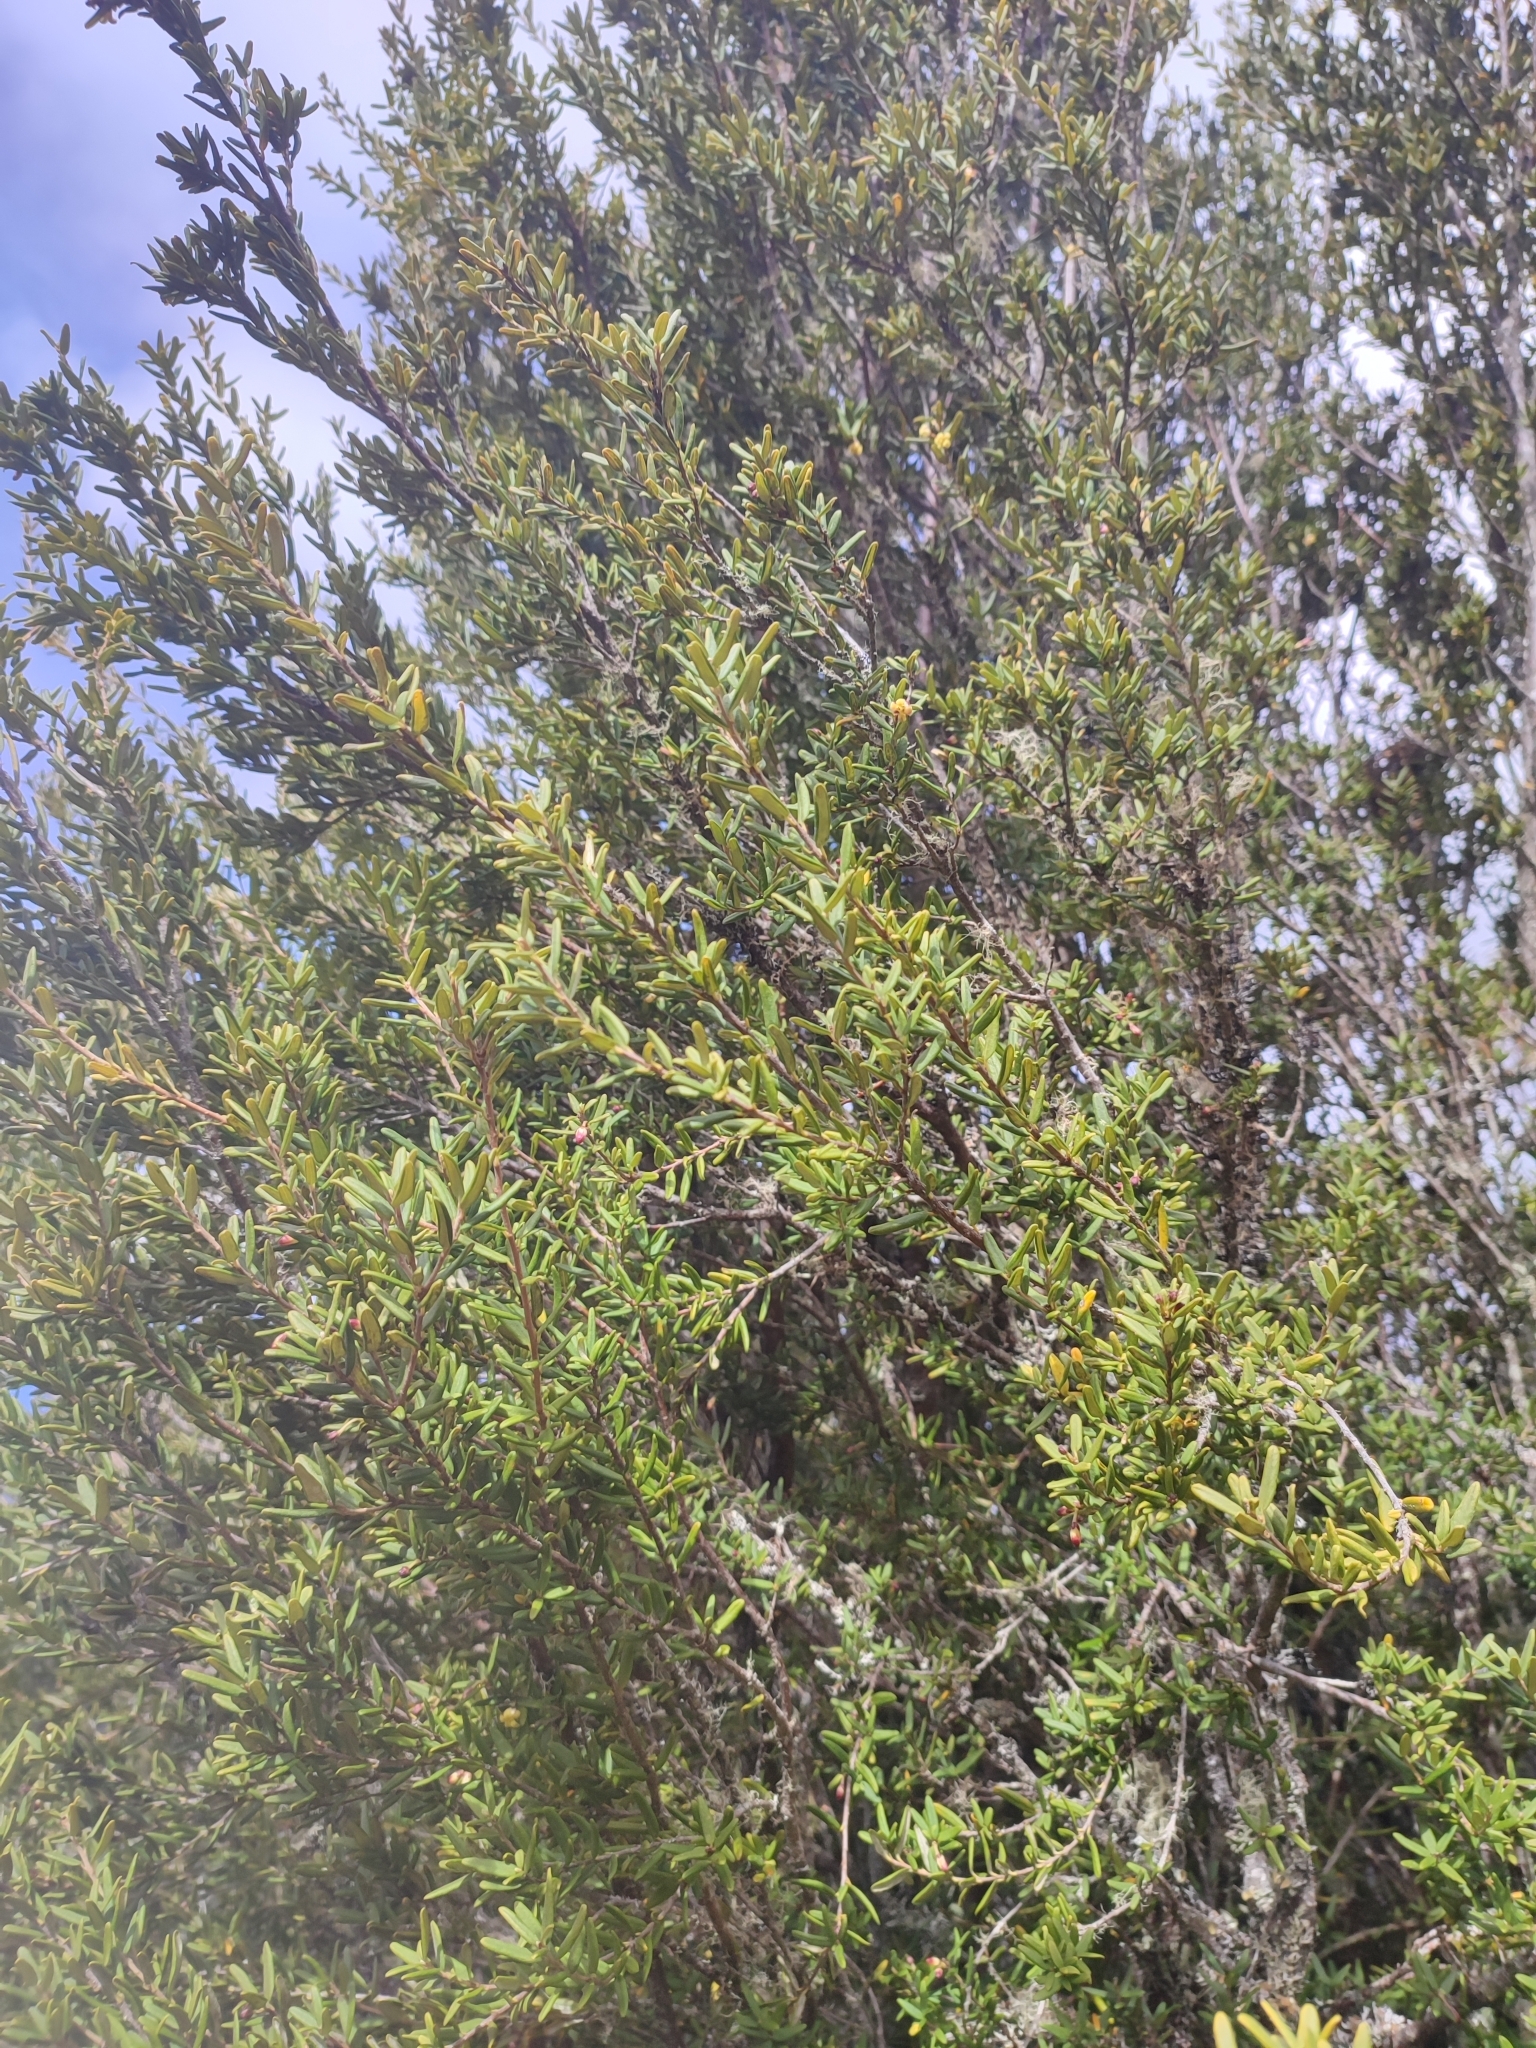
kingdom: Plantae
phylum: Tracheophyta
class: Magnoliopsida
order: Apiales
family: Pittosporaceae
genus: Pittosporum
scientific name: Pittosporum bicolor
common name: Tallowwood
